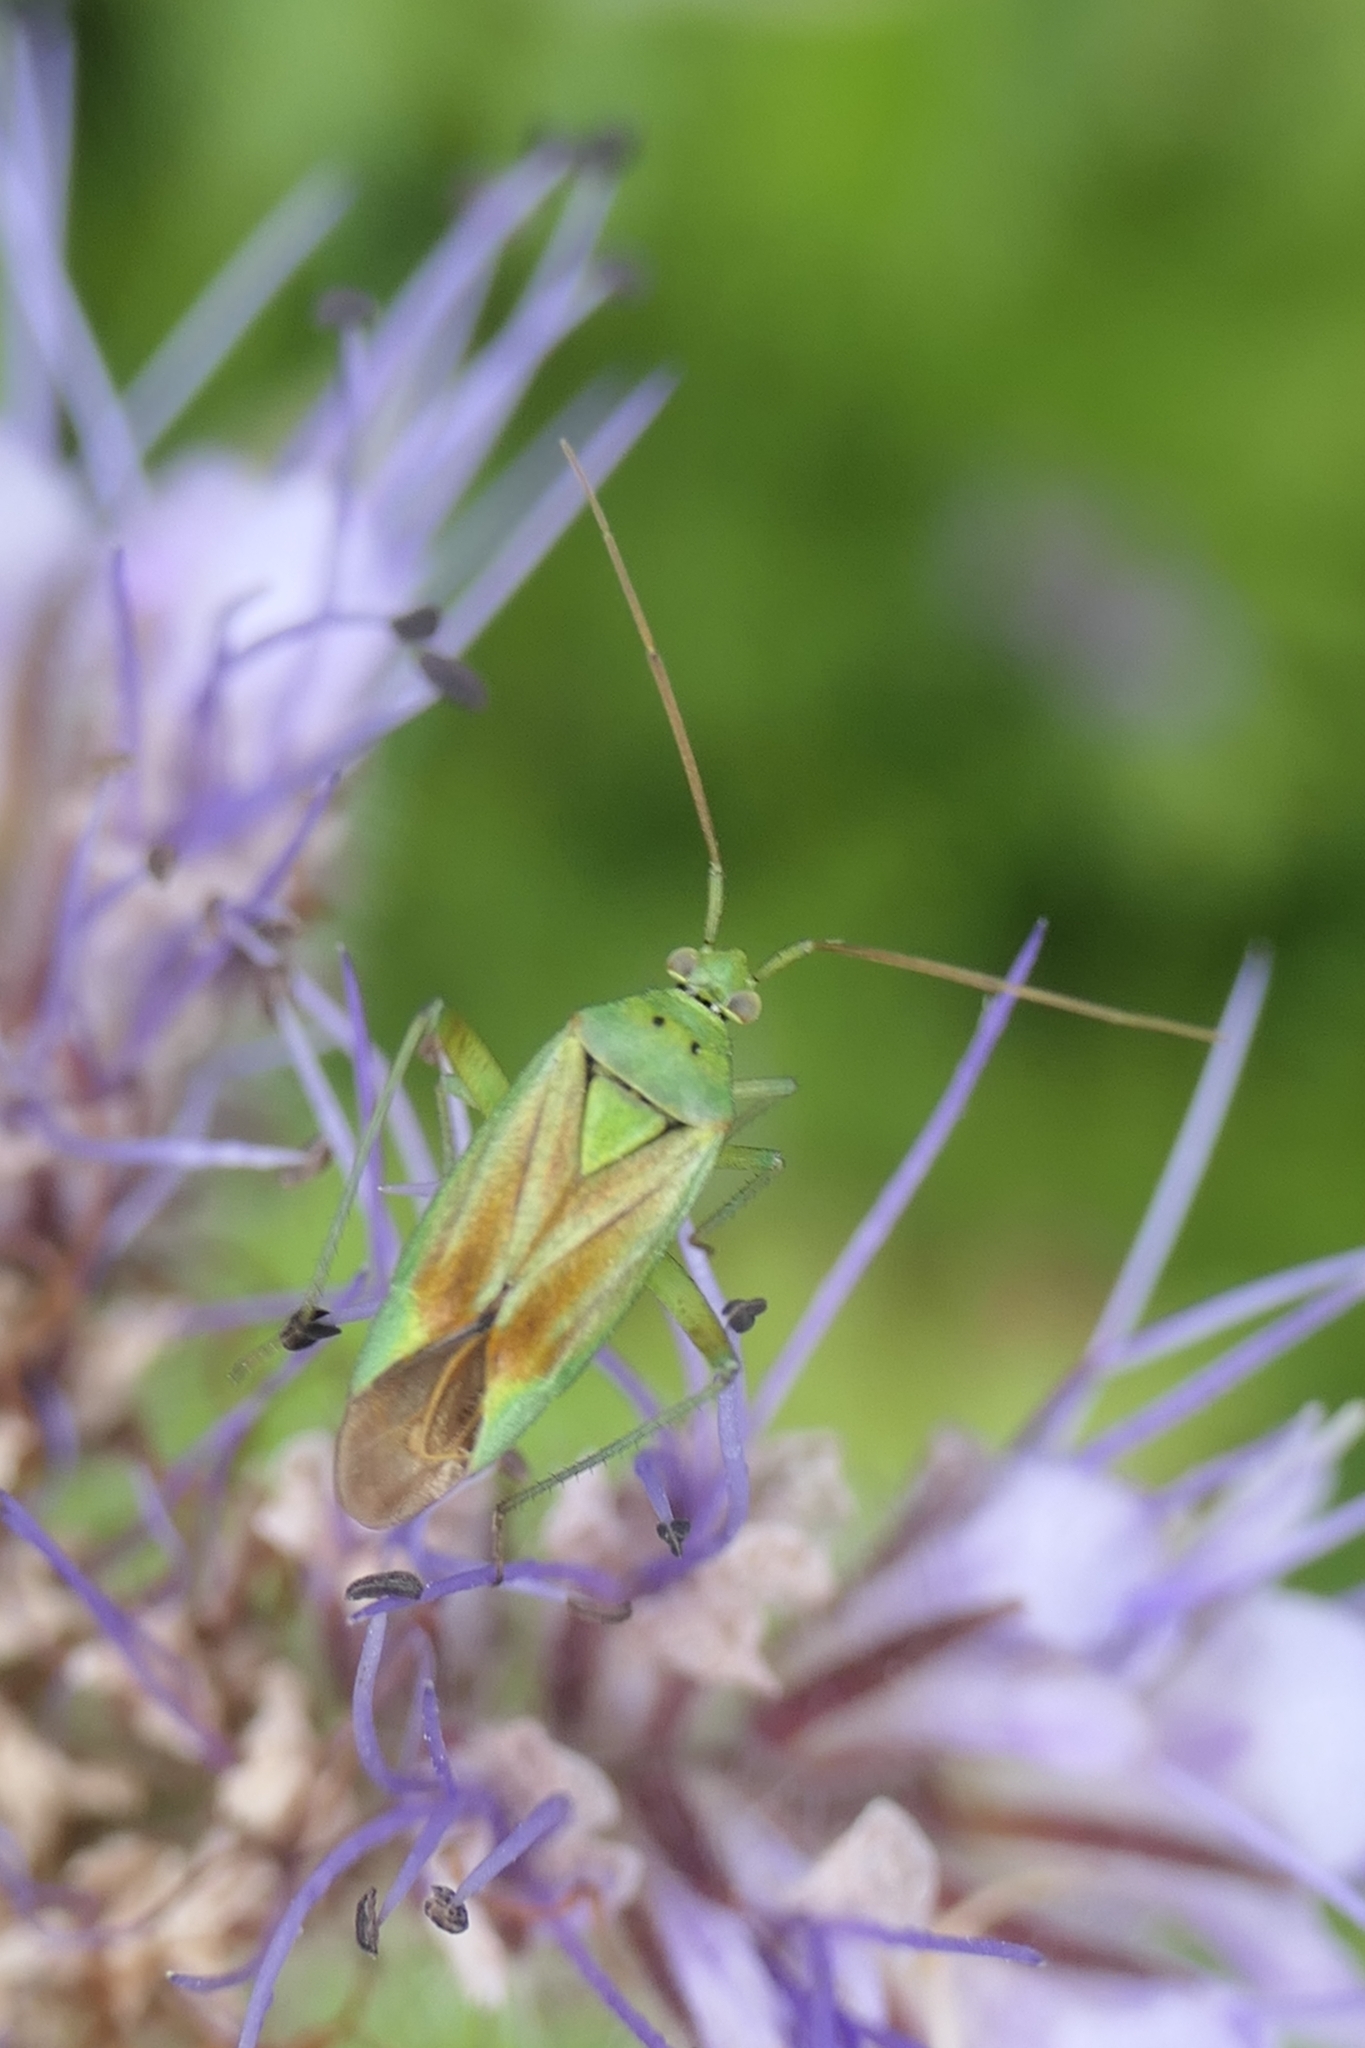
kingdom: Animalia
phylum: Arthropoda
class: Insecta
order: Hemiptera
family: Miridae
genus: Closterotomus
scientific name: Closterotomus norvegicus
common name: Plant bug
